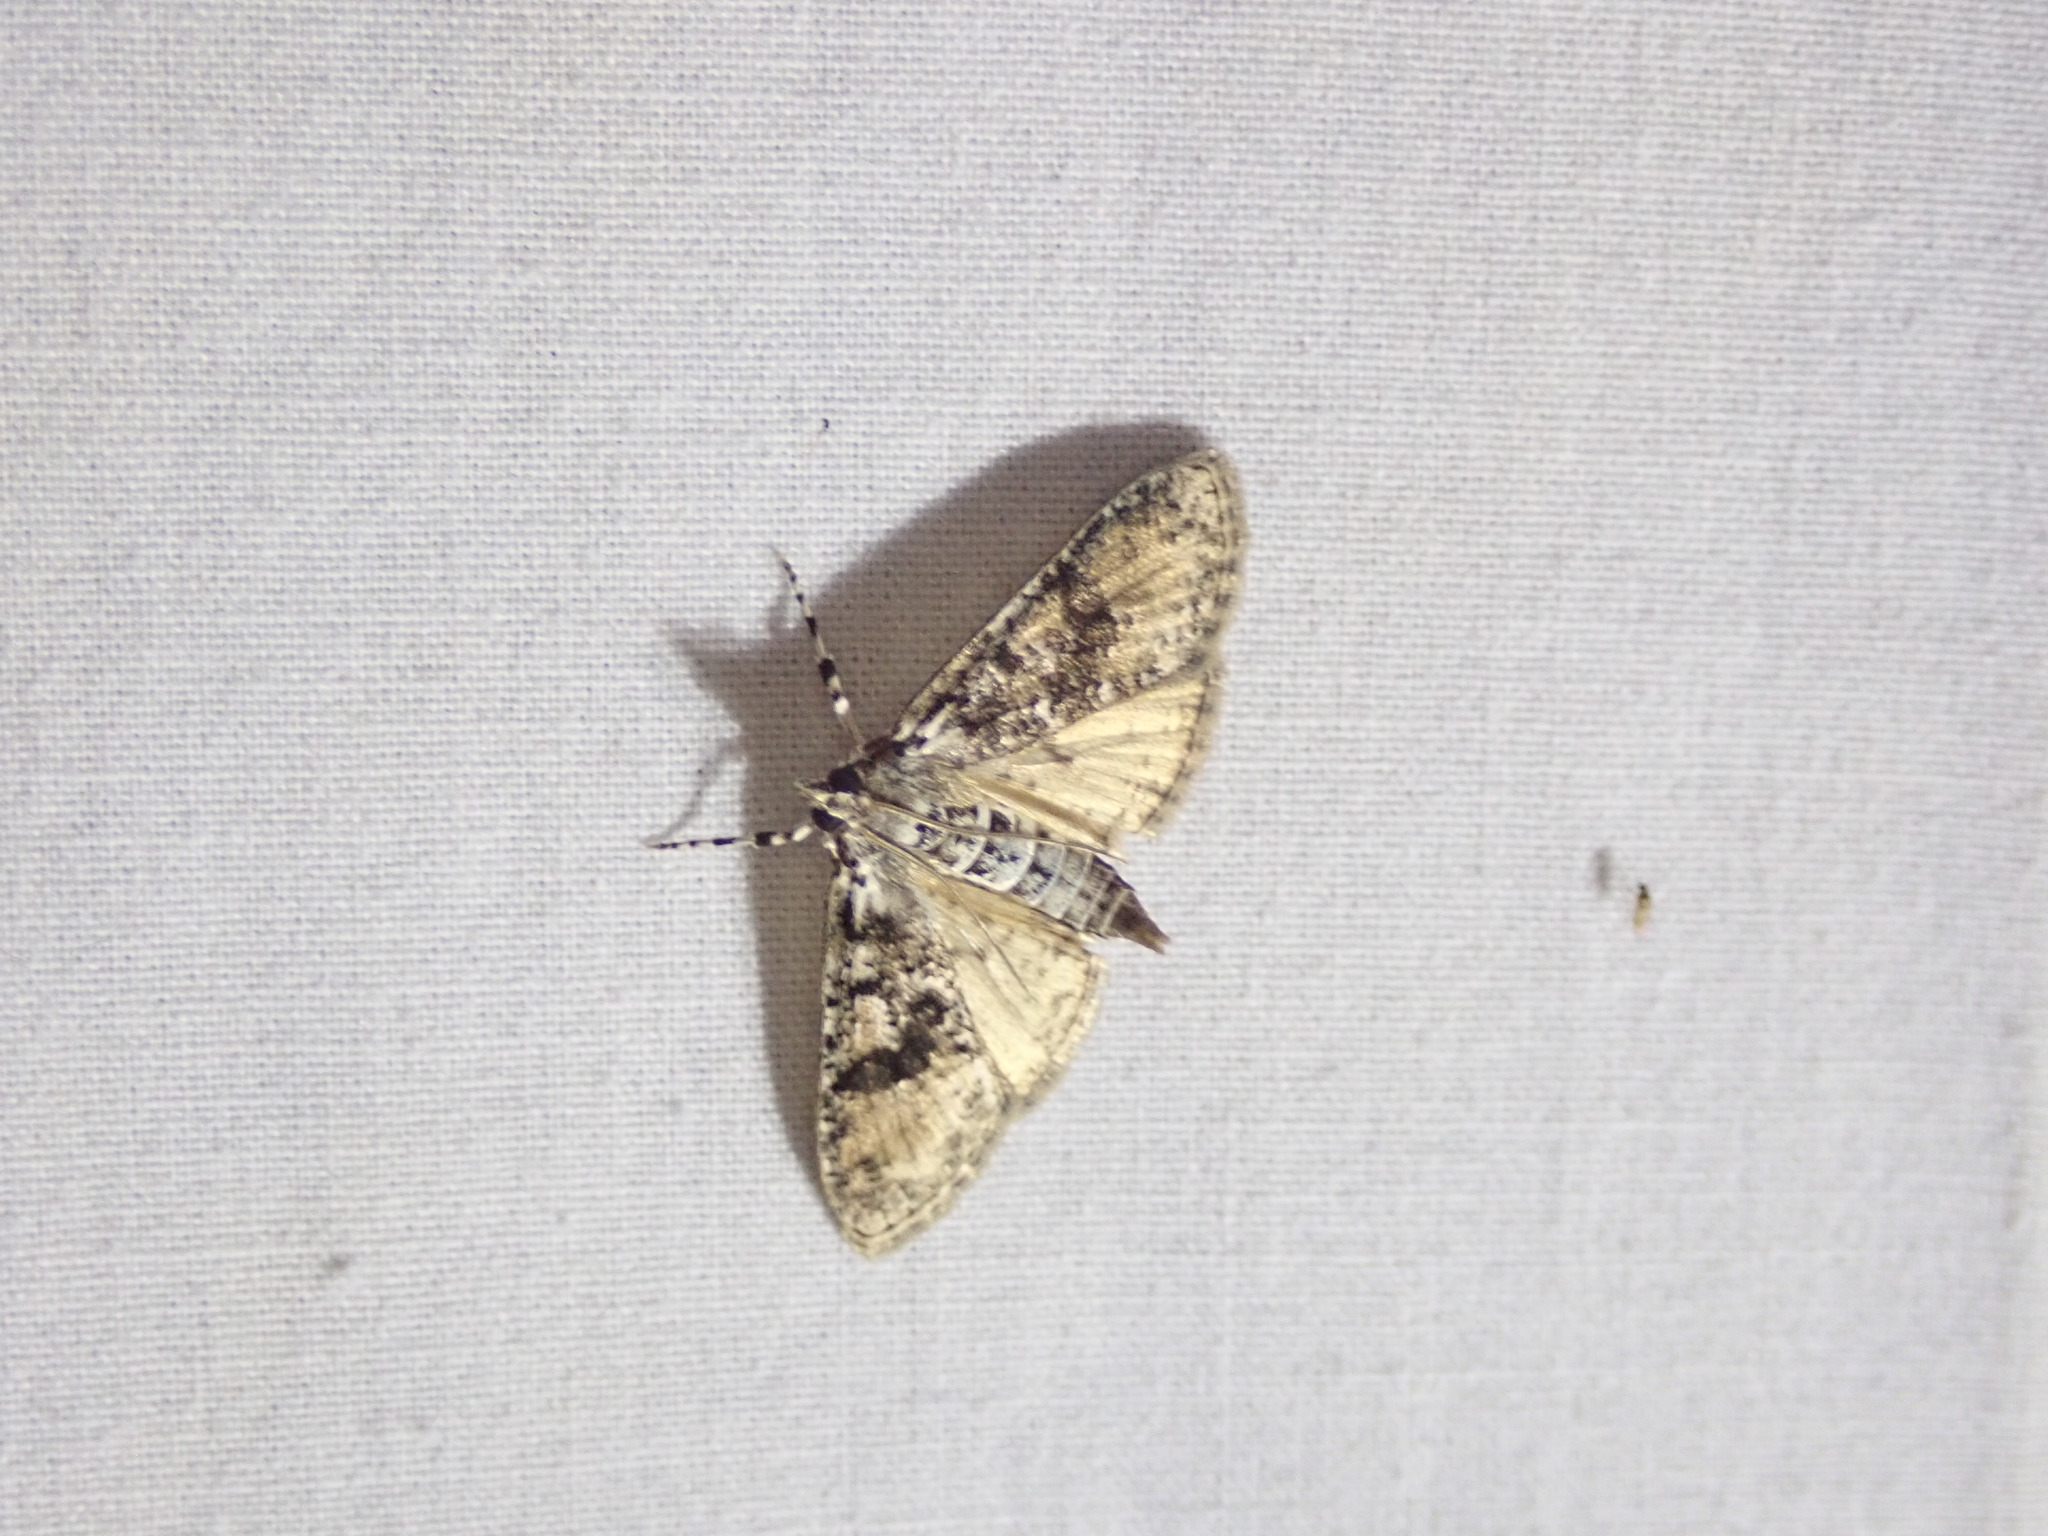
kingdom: Animalia
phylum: Arthropoda
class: Insecta
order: Lepidoptera
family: Crambidae
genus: Palpita
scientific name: Palpita magniferalis
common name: Splendid palpita moth
